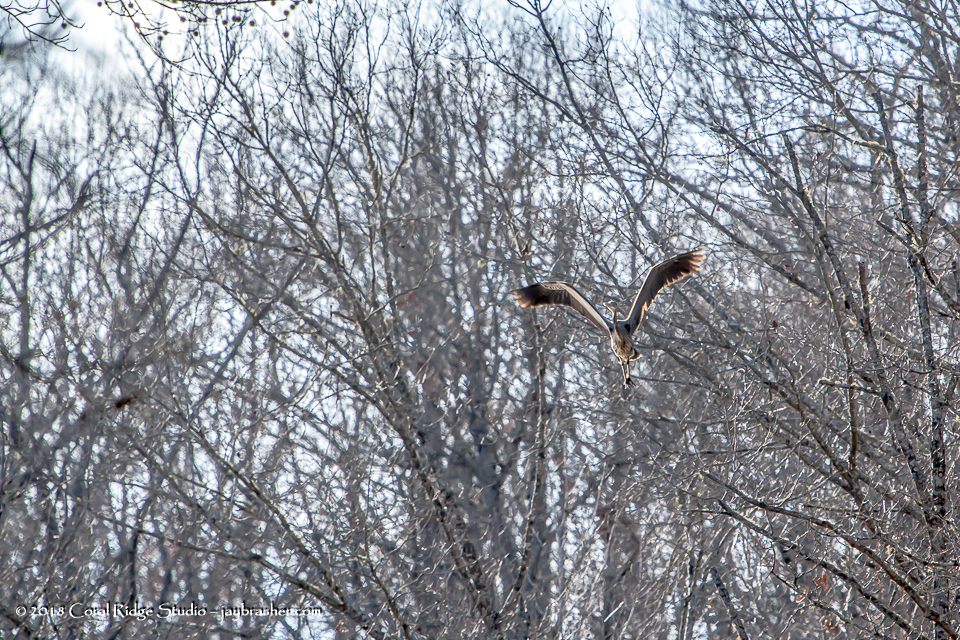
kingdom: Animalia
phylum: Chordata
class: Aves
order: Pelecaniformes
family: Ardeidae
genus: Ardea
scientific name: Ardea herodias
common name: Great blue heron
